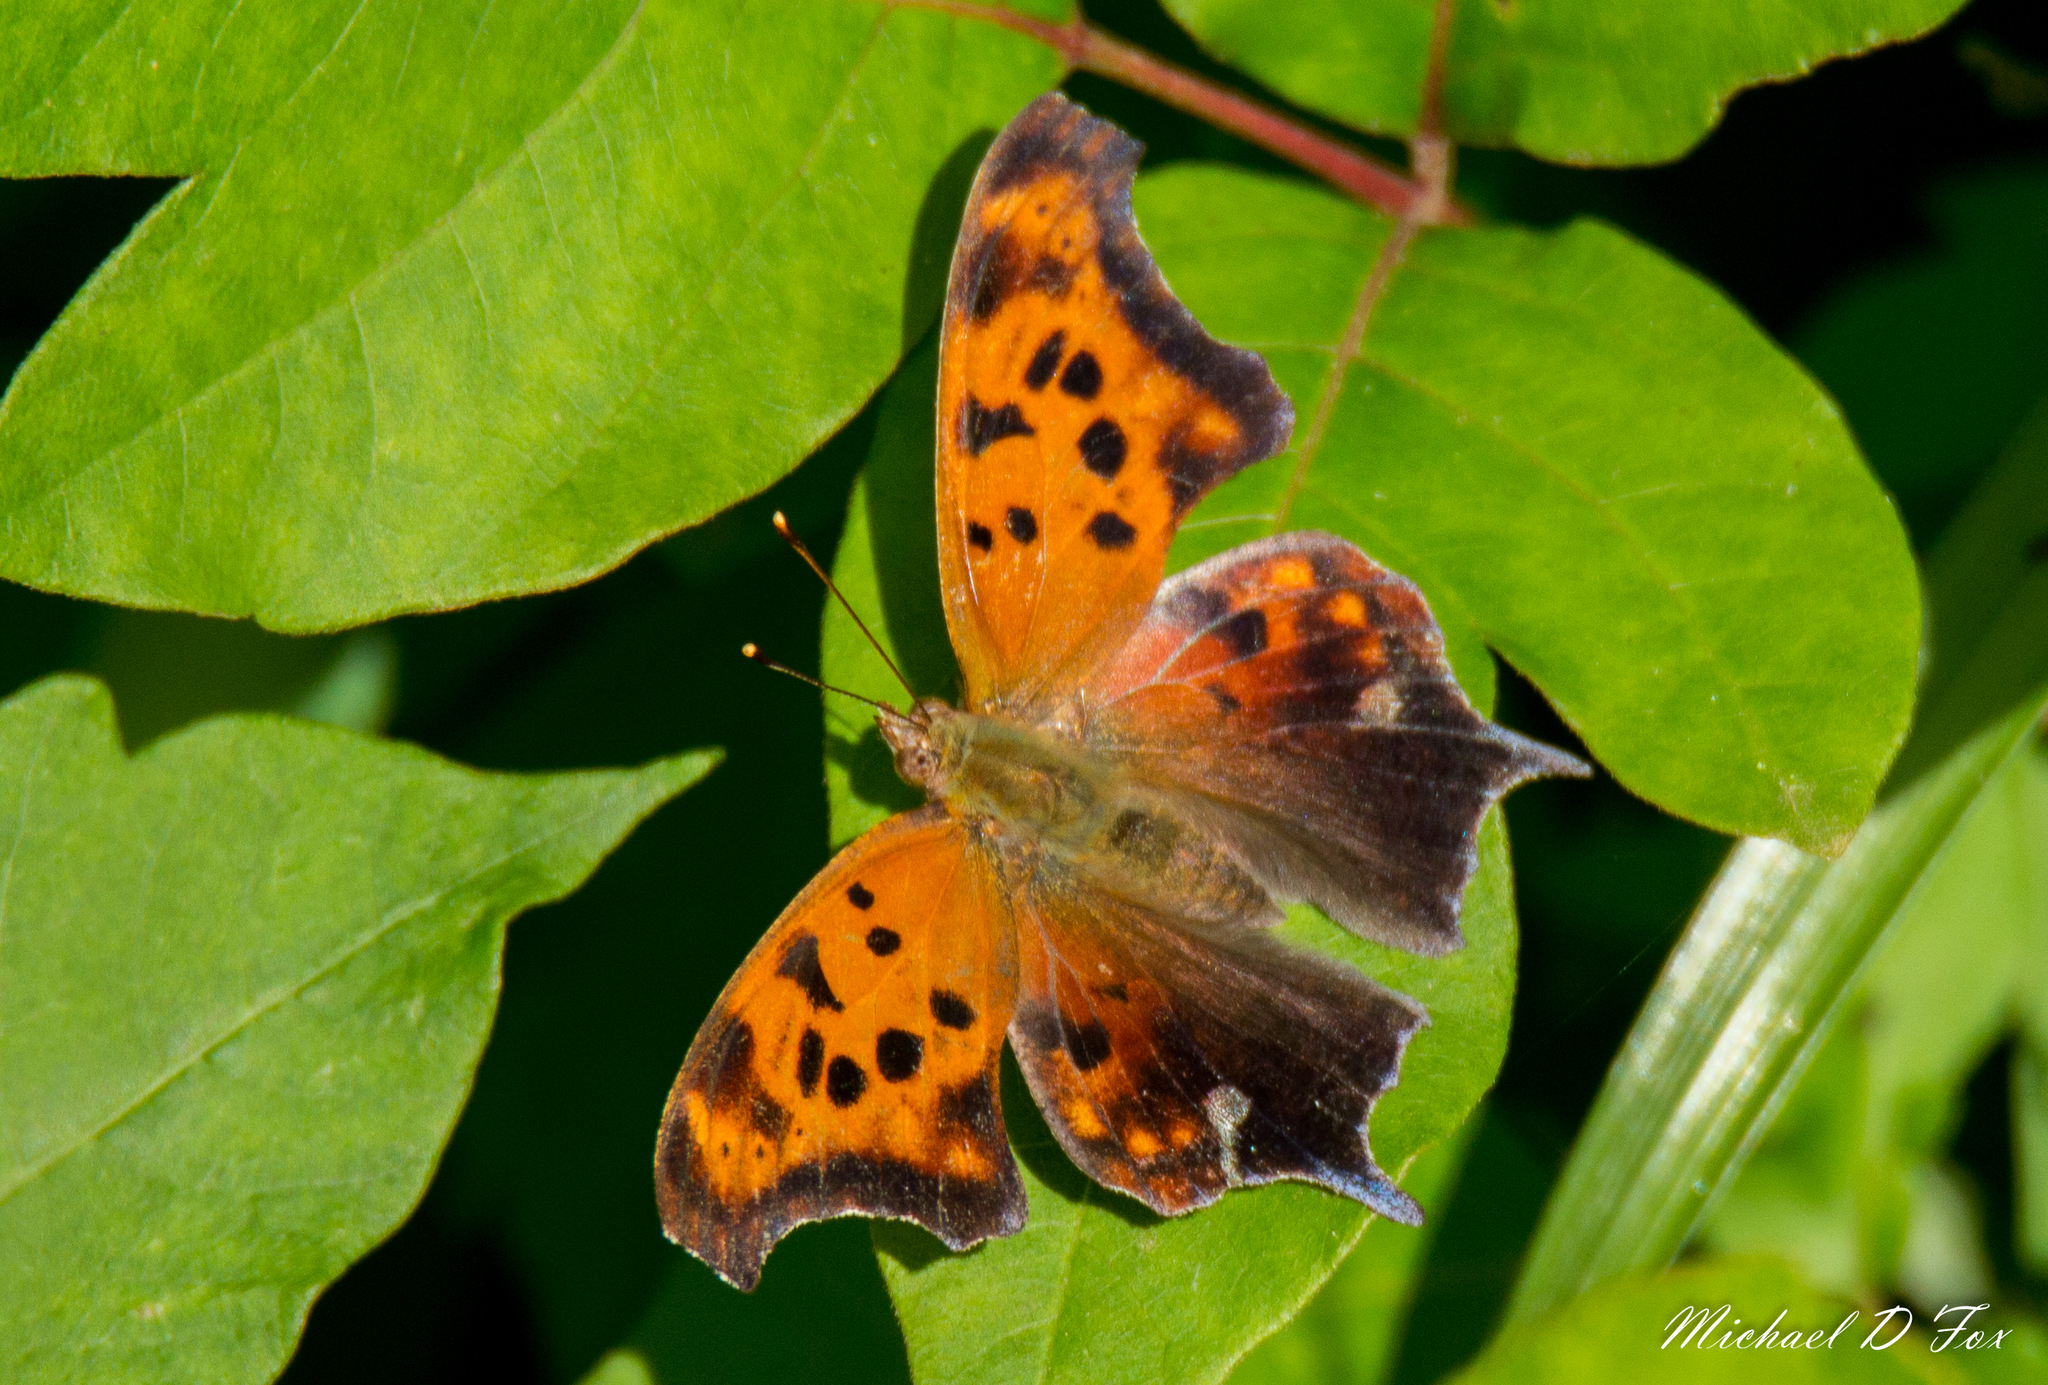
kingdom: Animalia
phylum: Arthropoda
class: Insecta
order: Lepidoptera
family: Nymphalidae
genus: Polygonia
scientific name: Polygonia interrogationis
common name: Question mark
